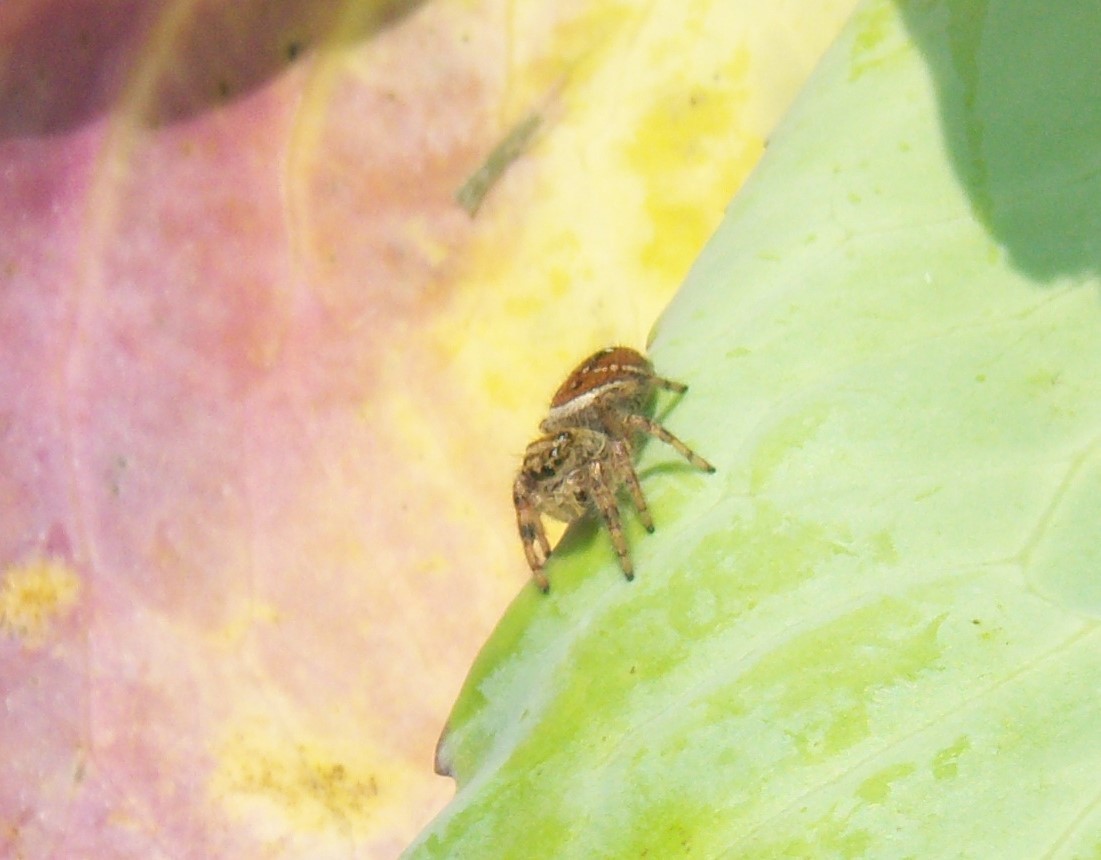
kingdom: Animalia
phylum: Arthropoda
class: Arachnida
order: Araneae
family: Salticidae
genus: Phidippus
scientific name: Phidippus clarus
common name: Brilliant jumping spider
